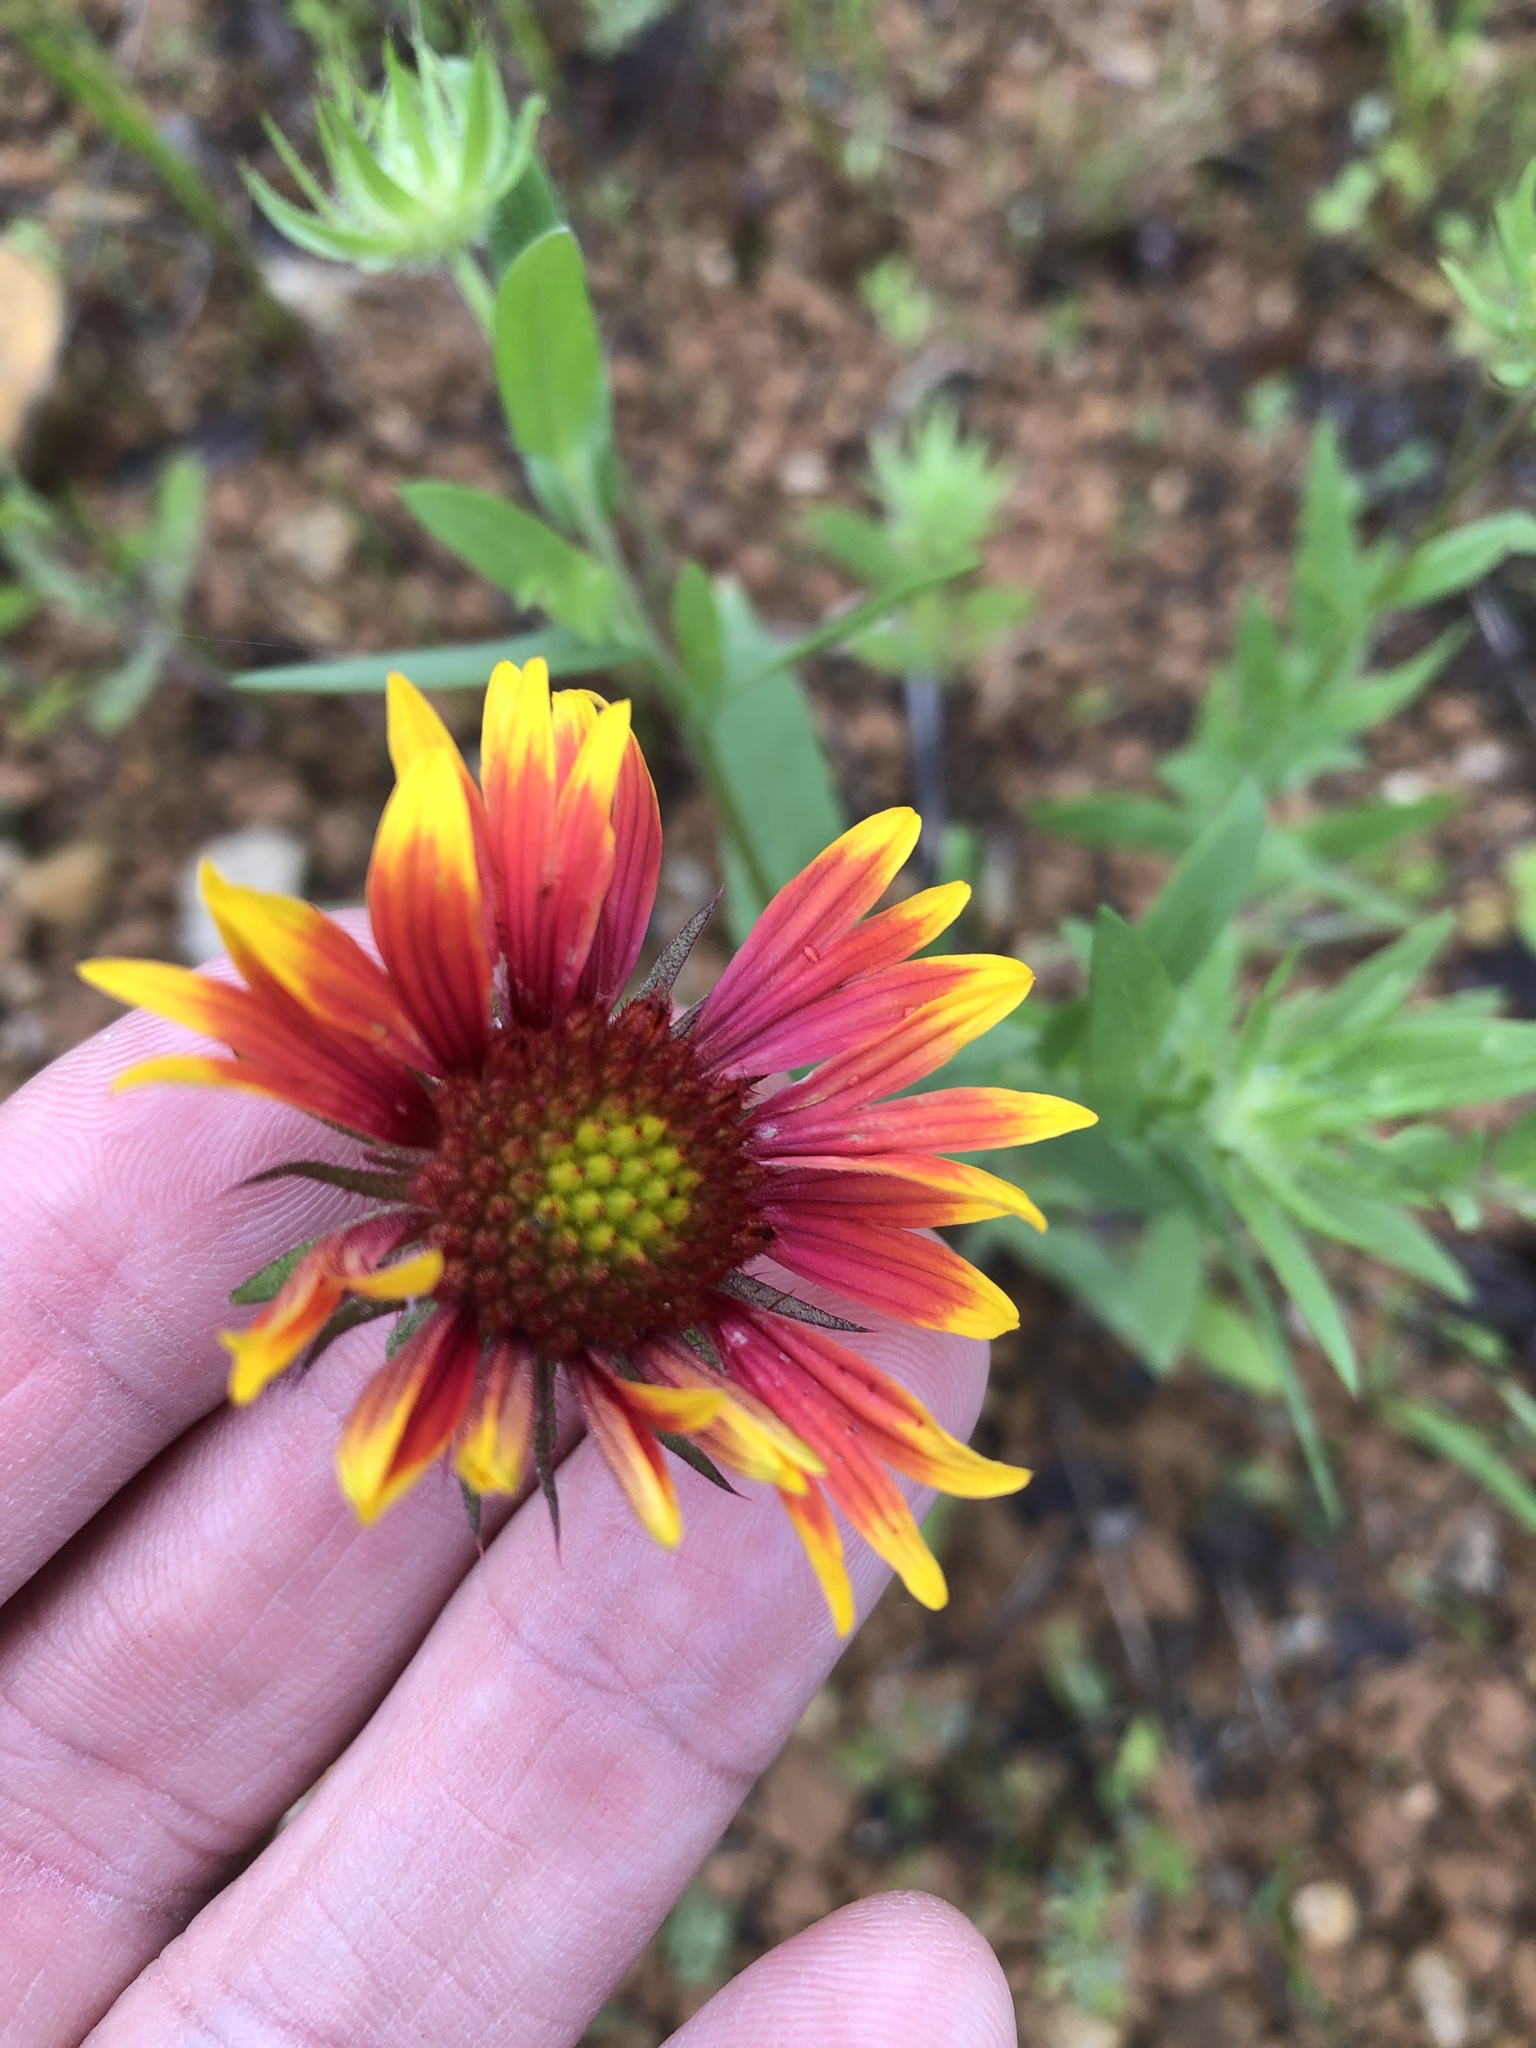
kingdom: Plantae
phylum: Tracheophyta
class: Magnoliopsida
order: Asterales
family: Asteraceae
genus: Gaillardia
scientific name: Gaillardia pulchella
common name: Firewheel
